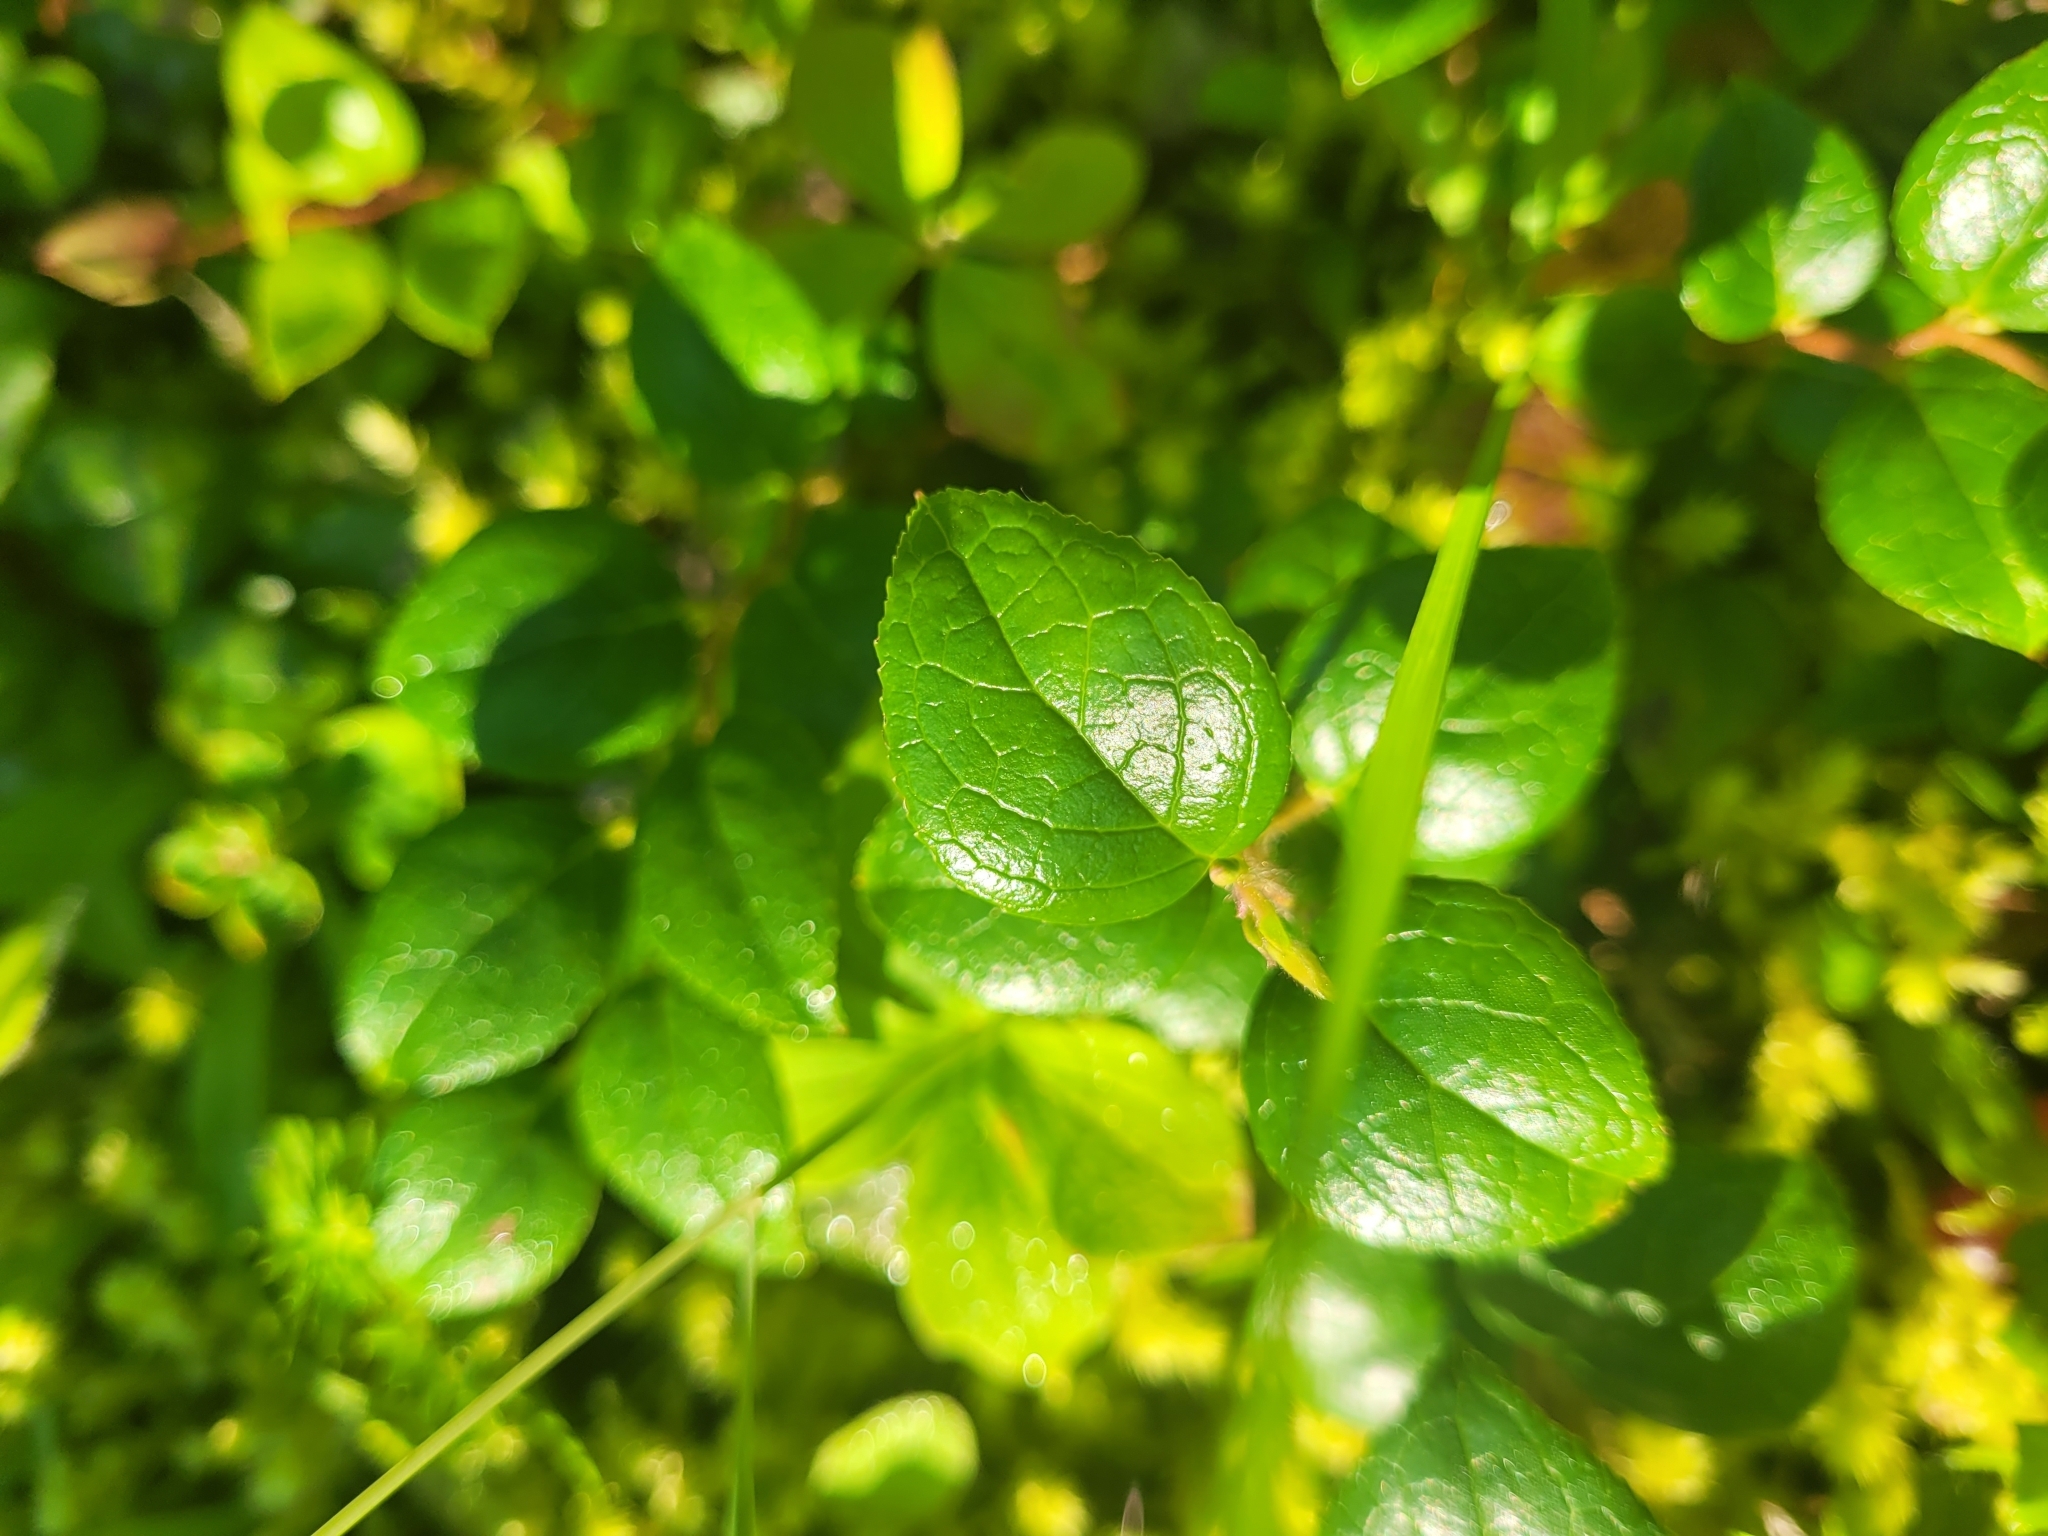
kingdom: Plantae
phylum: Tracheophyta
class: Magnoliopsida
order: Ericales
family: Ericaceae
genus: Gaultheria
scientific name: Gaultheria ovatifolia
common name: Oregon wintergreen
